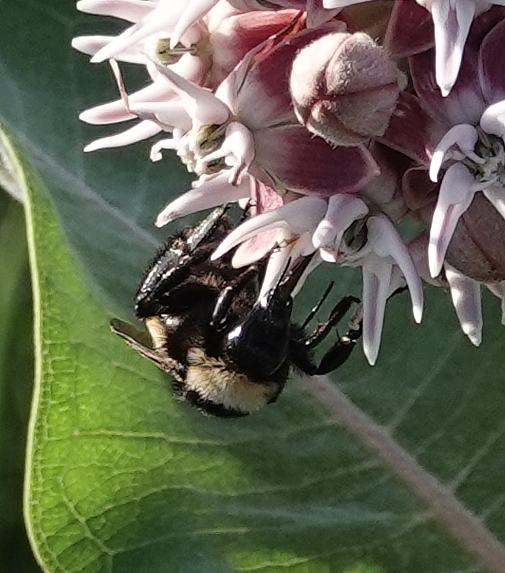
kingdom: Animalia
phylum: Arthropoda
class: Insecta
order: Hymenoptera
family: Apidae
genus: Bombus
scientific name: Bombus pensylvanicus
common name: Bumble bee
